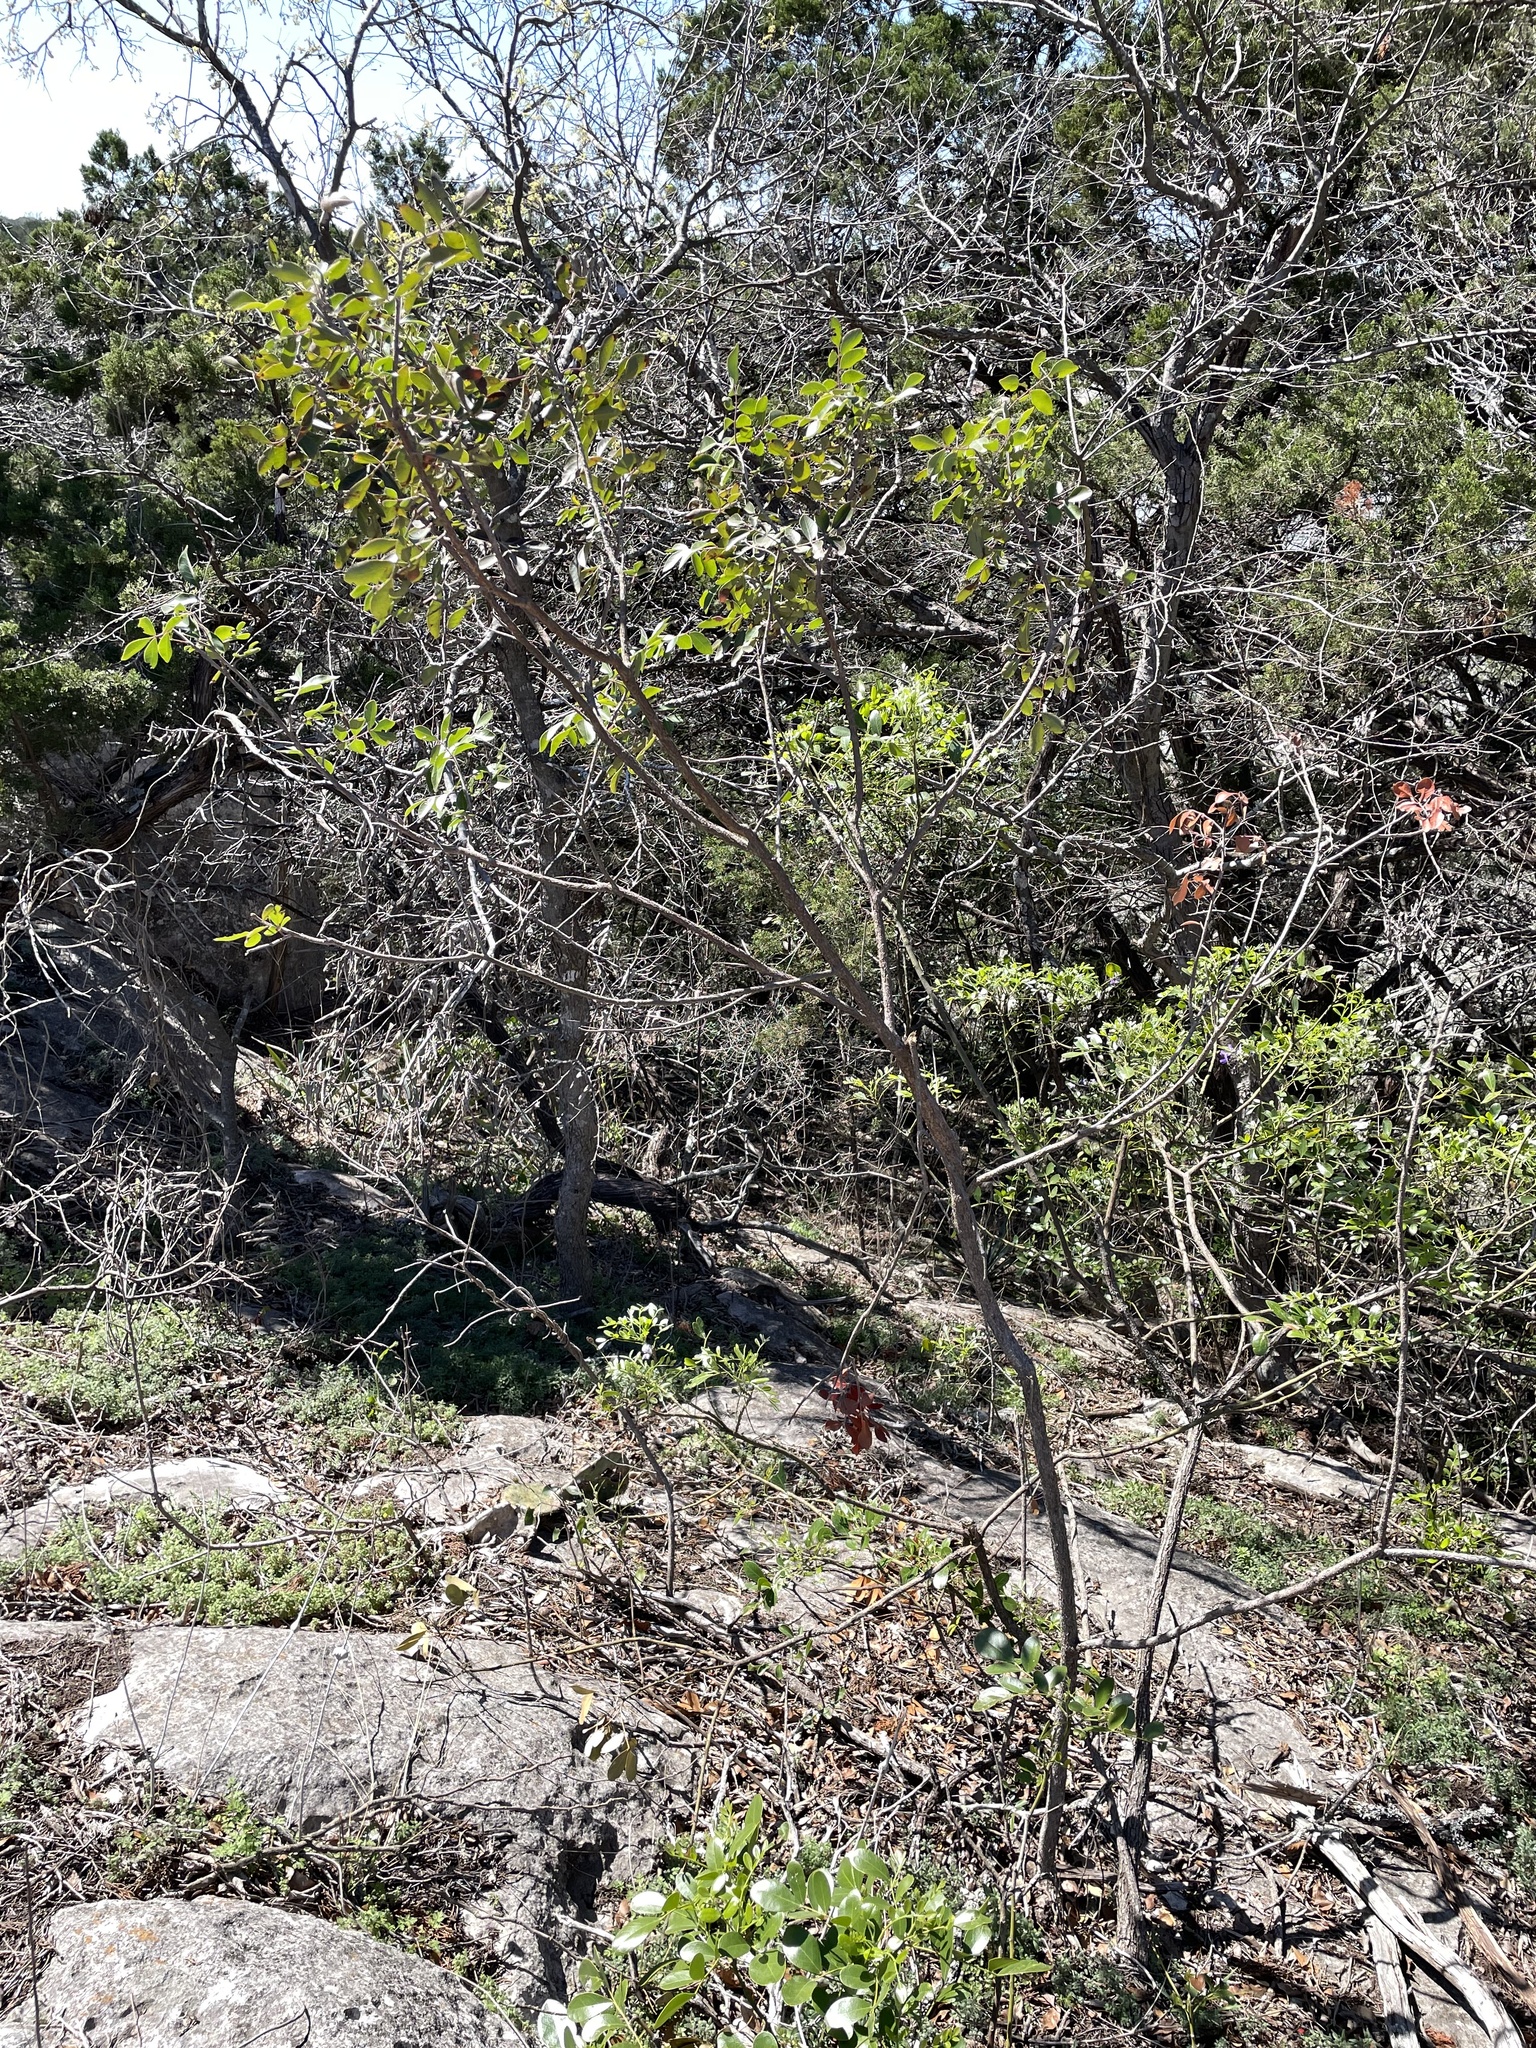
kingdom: Plantae
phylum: Tracheophyta
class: Magnoliopsida
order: Sapindales
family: Anacardiaceae
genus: Rhus
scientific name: Rhus virens
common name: Evergreen sumac
